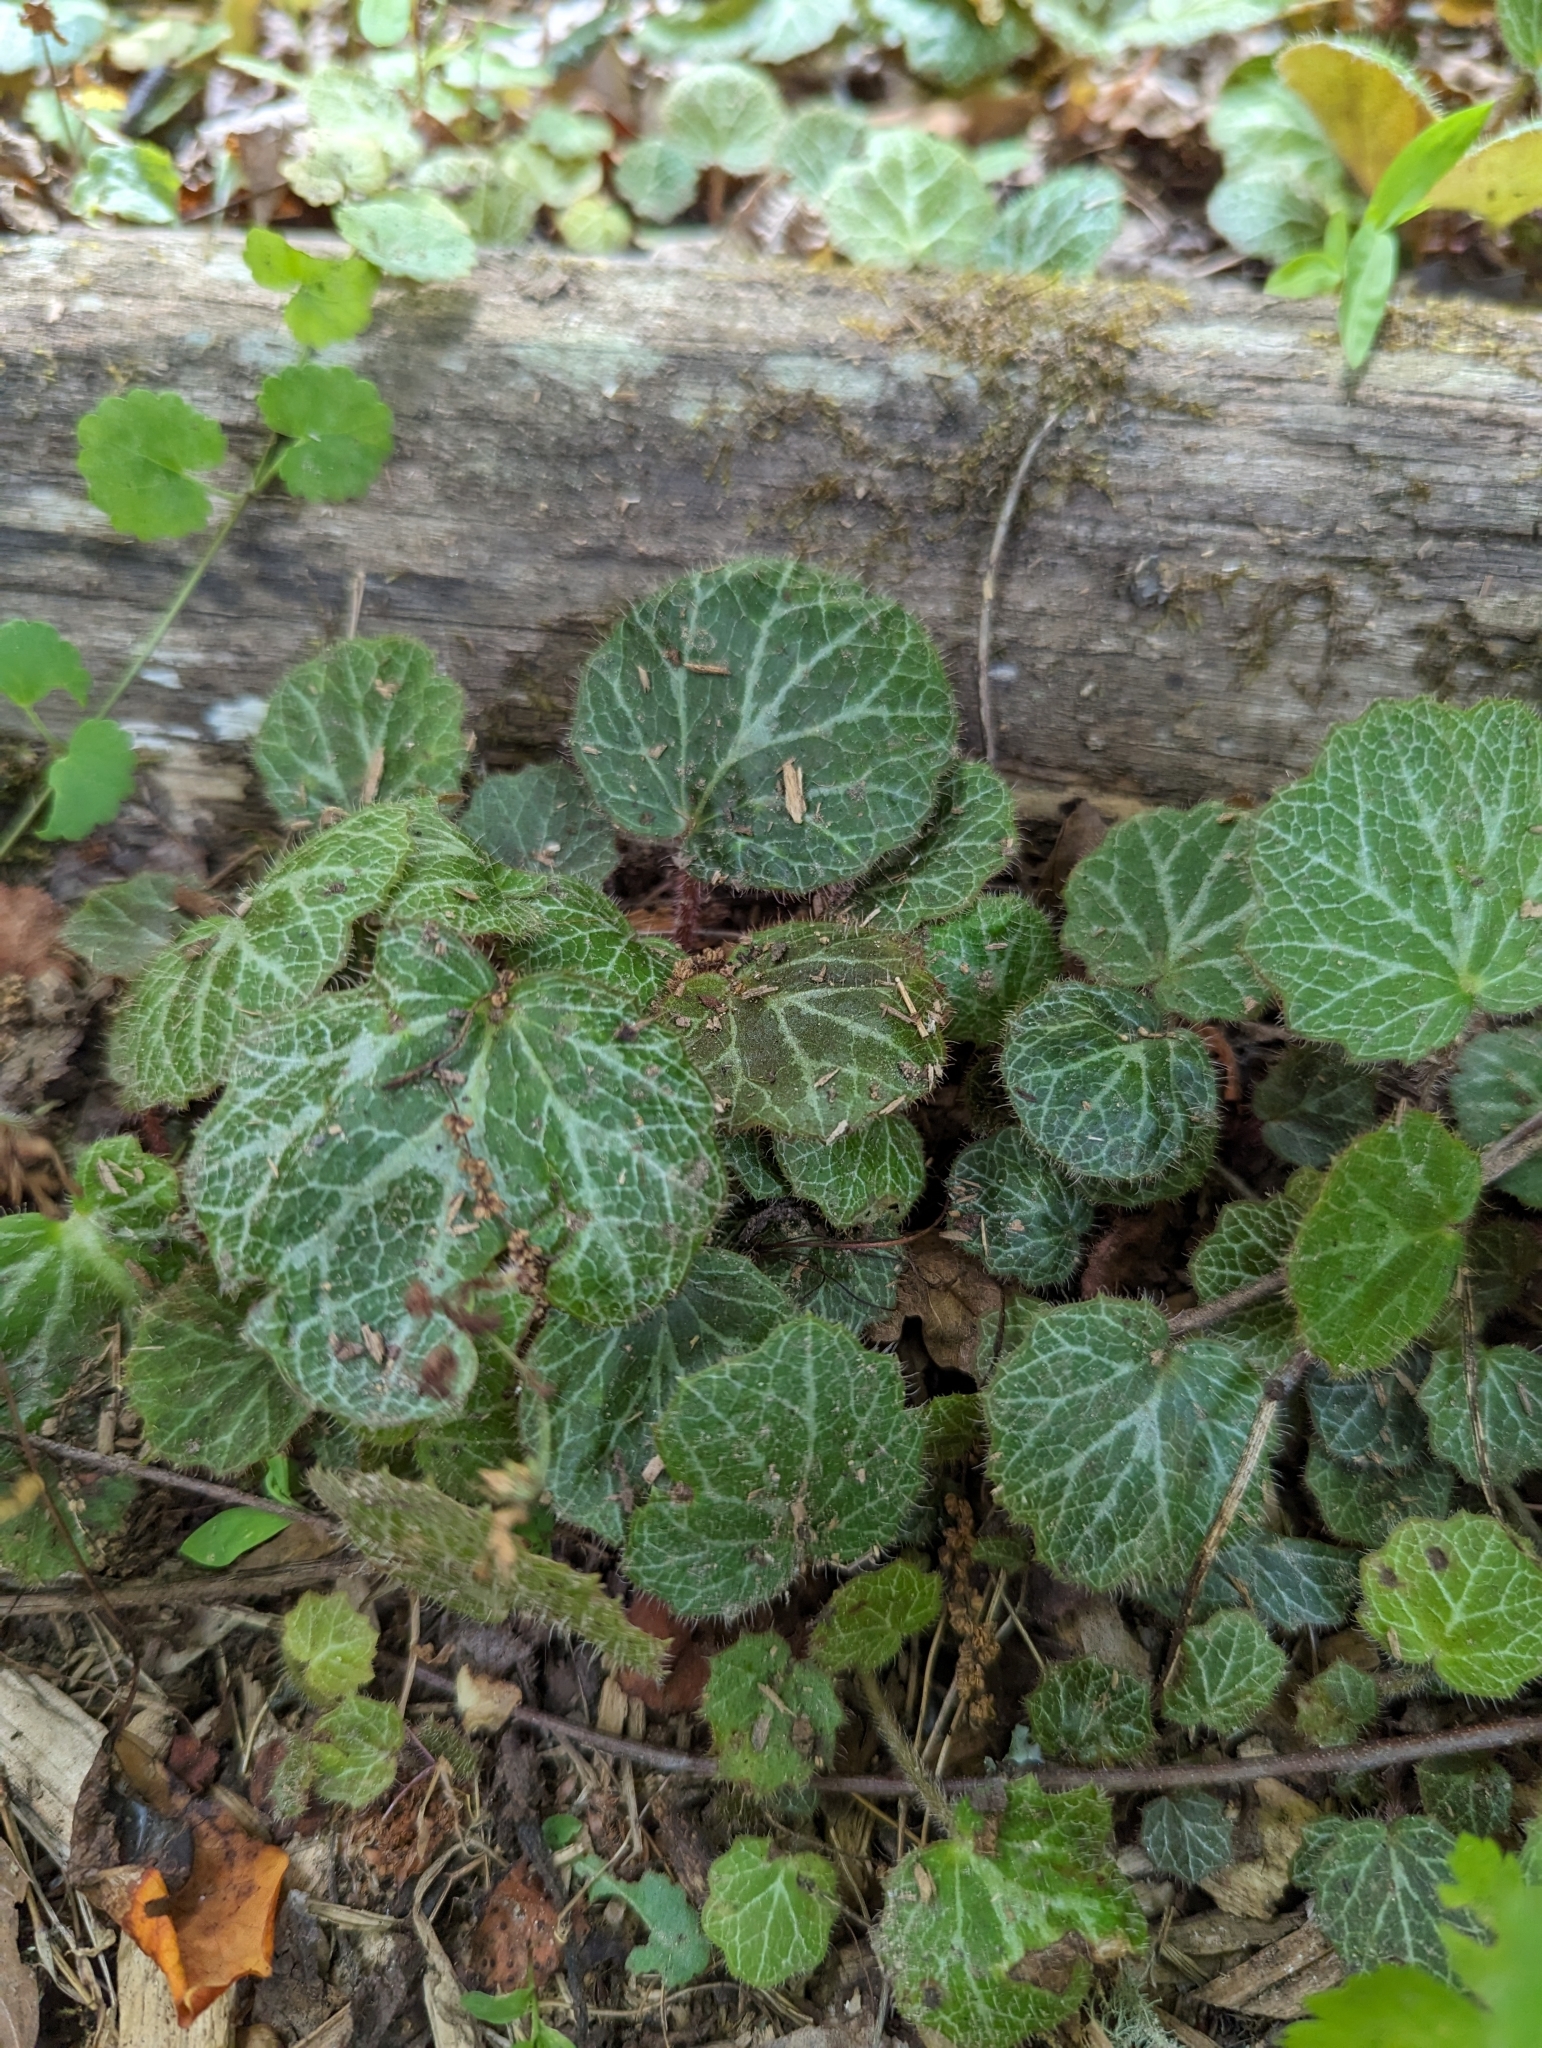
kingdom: Plantae
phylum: Tracheophyta
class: Magnoliopsida
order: Saxifragales
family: Saxifragaceae
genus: Saxifraga
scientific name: Saxifraga stolonifera
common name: Creeping saxifrage
